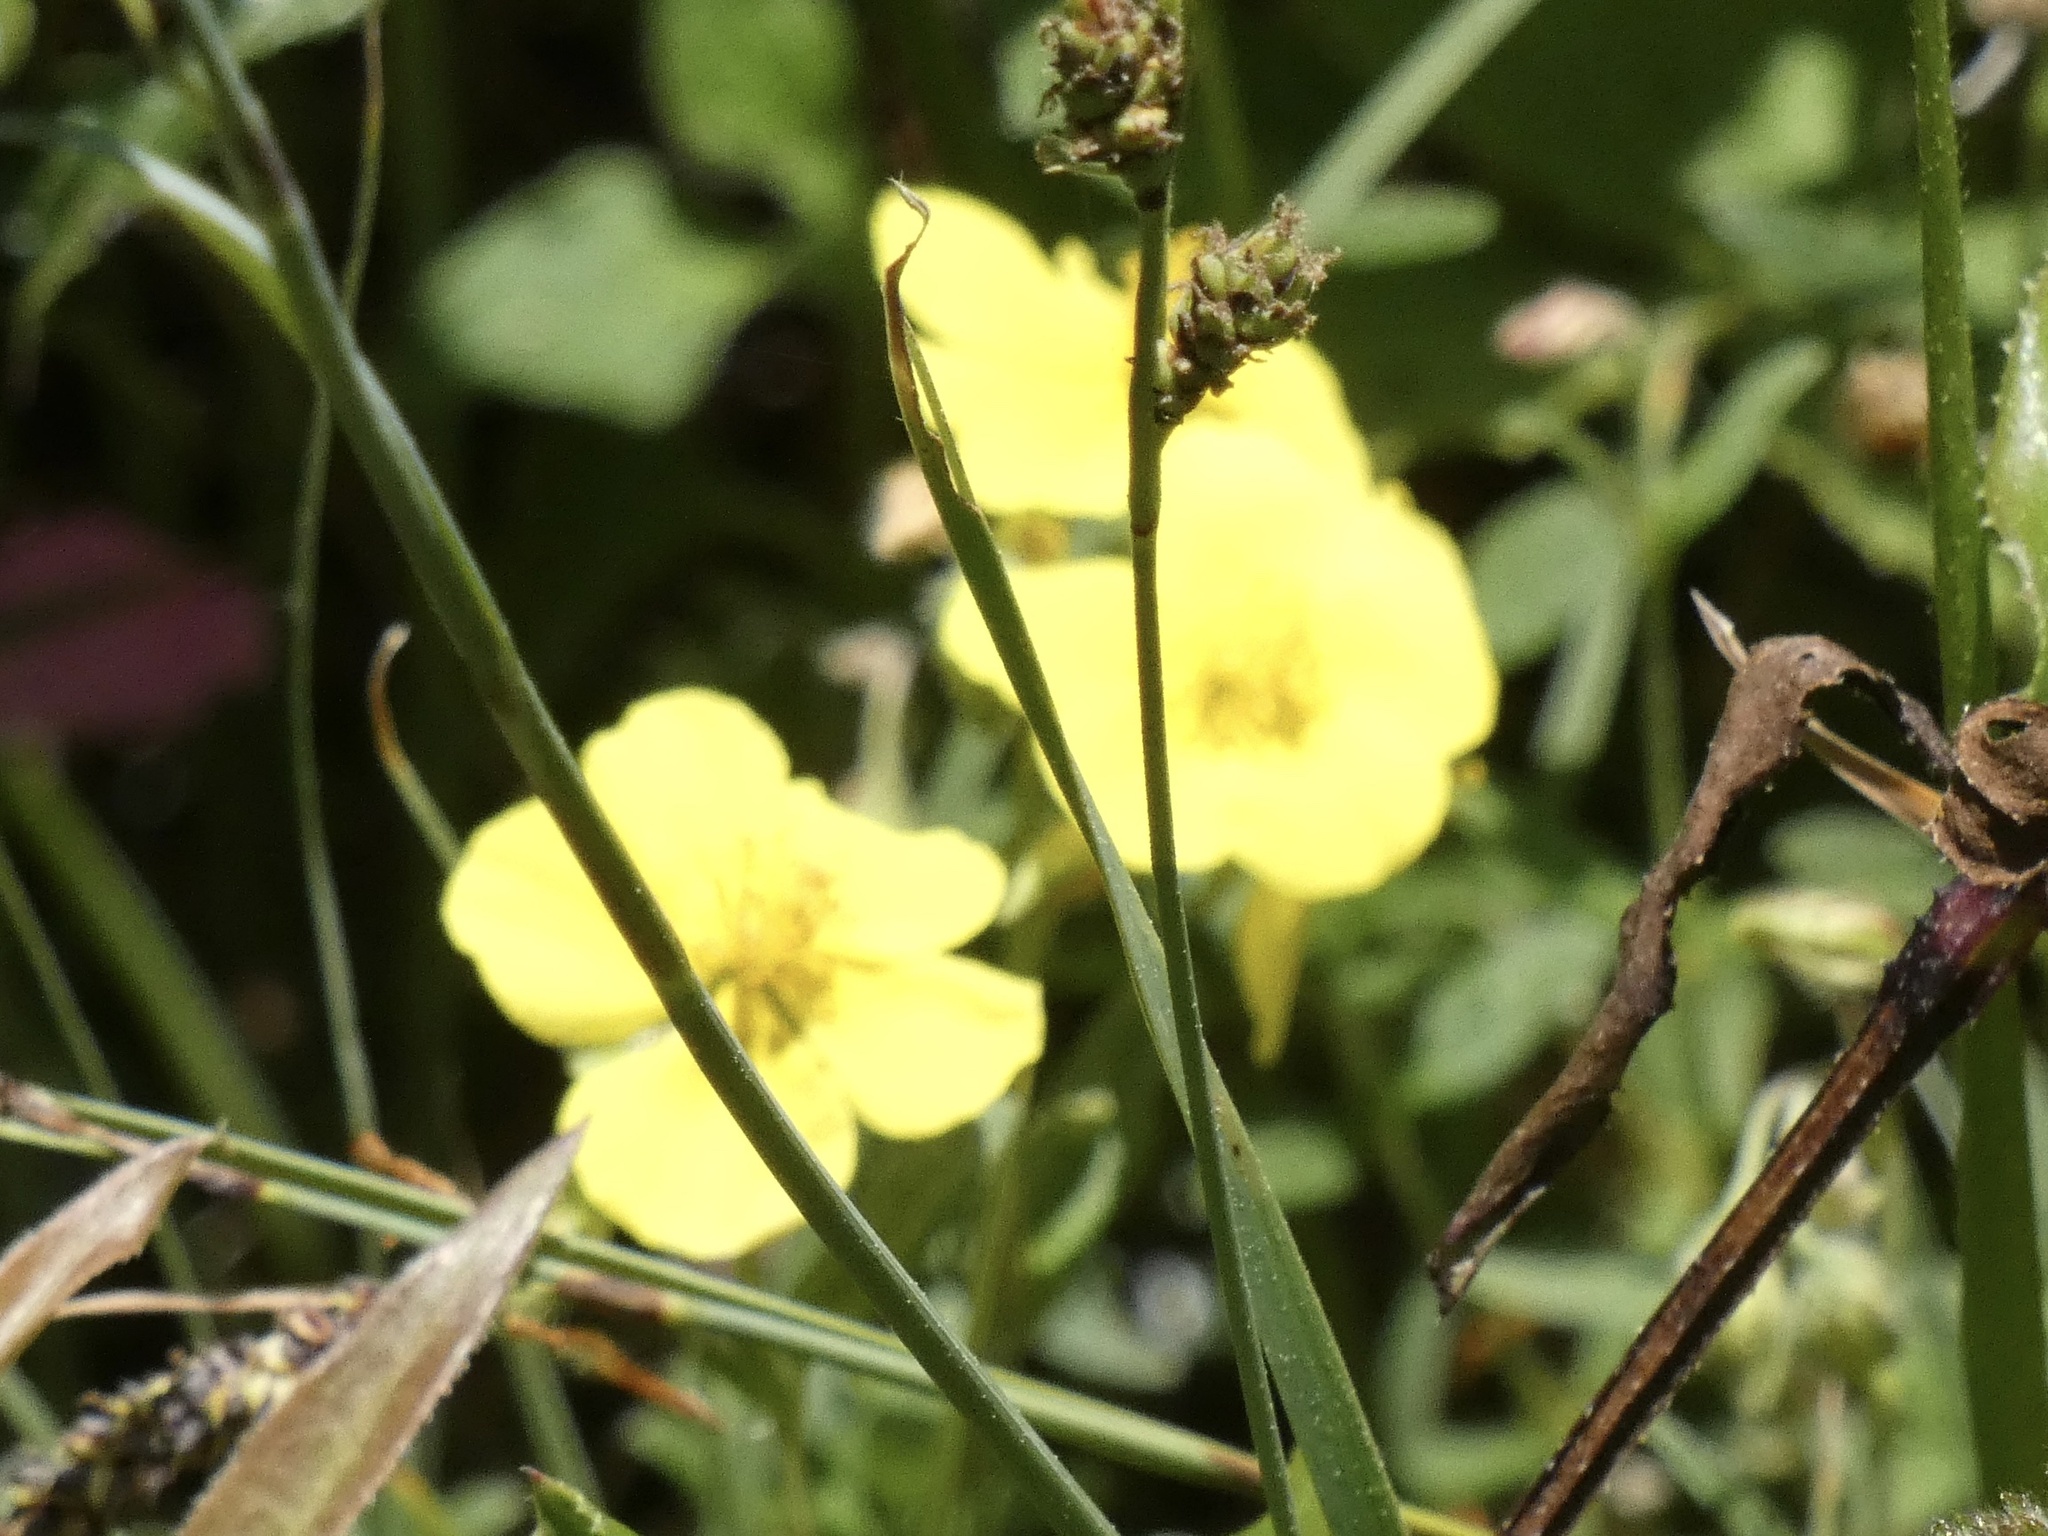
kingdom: Plantae
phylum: Tracheophyta
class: Magnoliopsida
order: Malvales
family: Cistaceae
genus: Helianthemum
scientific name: Helianthemum nummularium
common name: Common rock-rose
